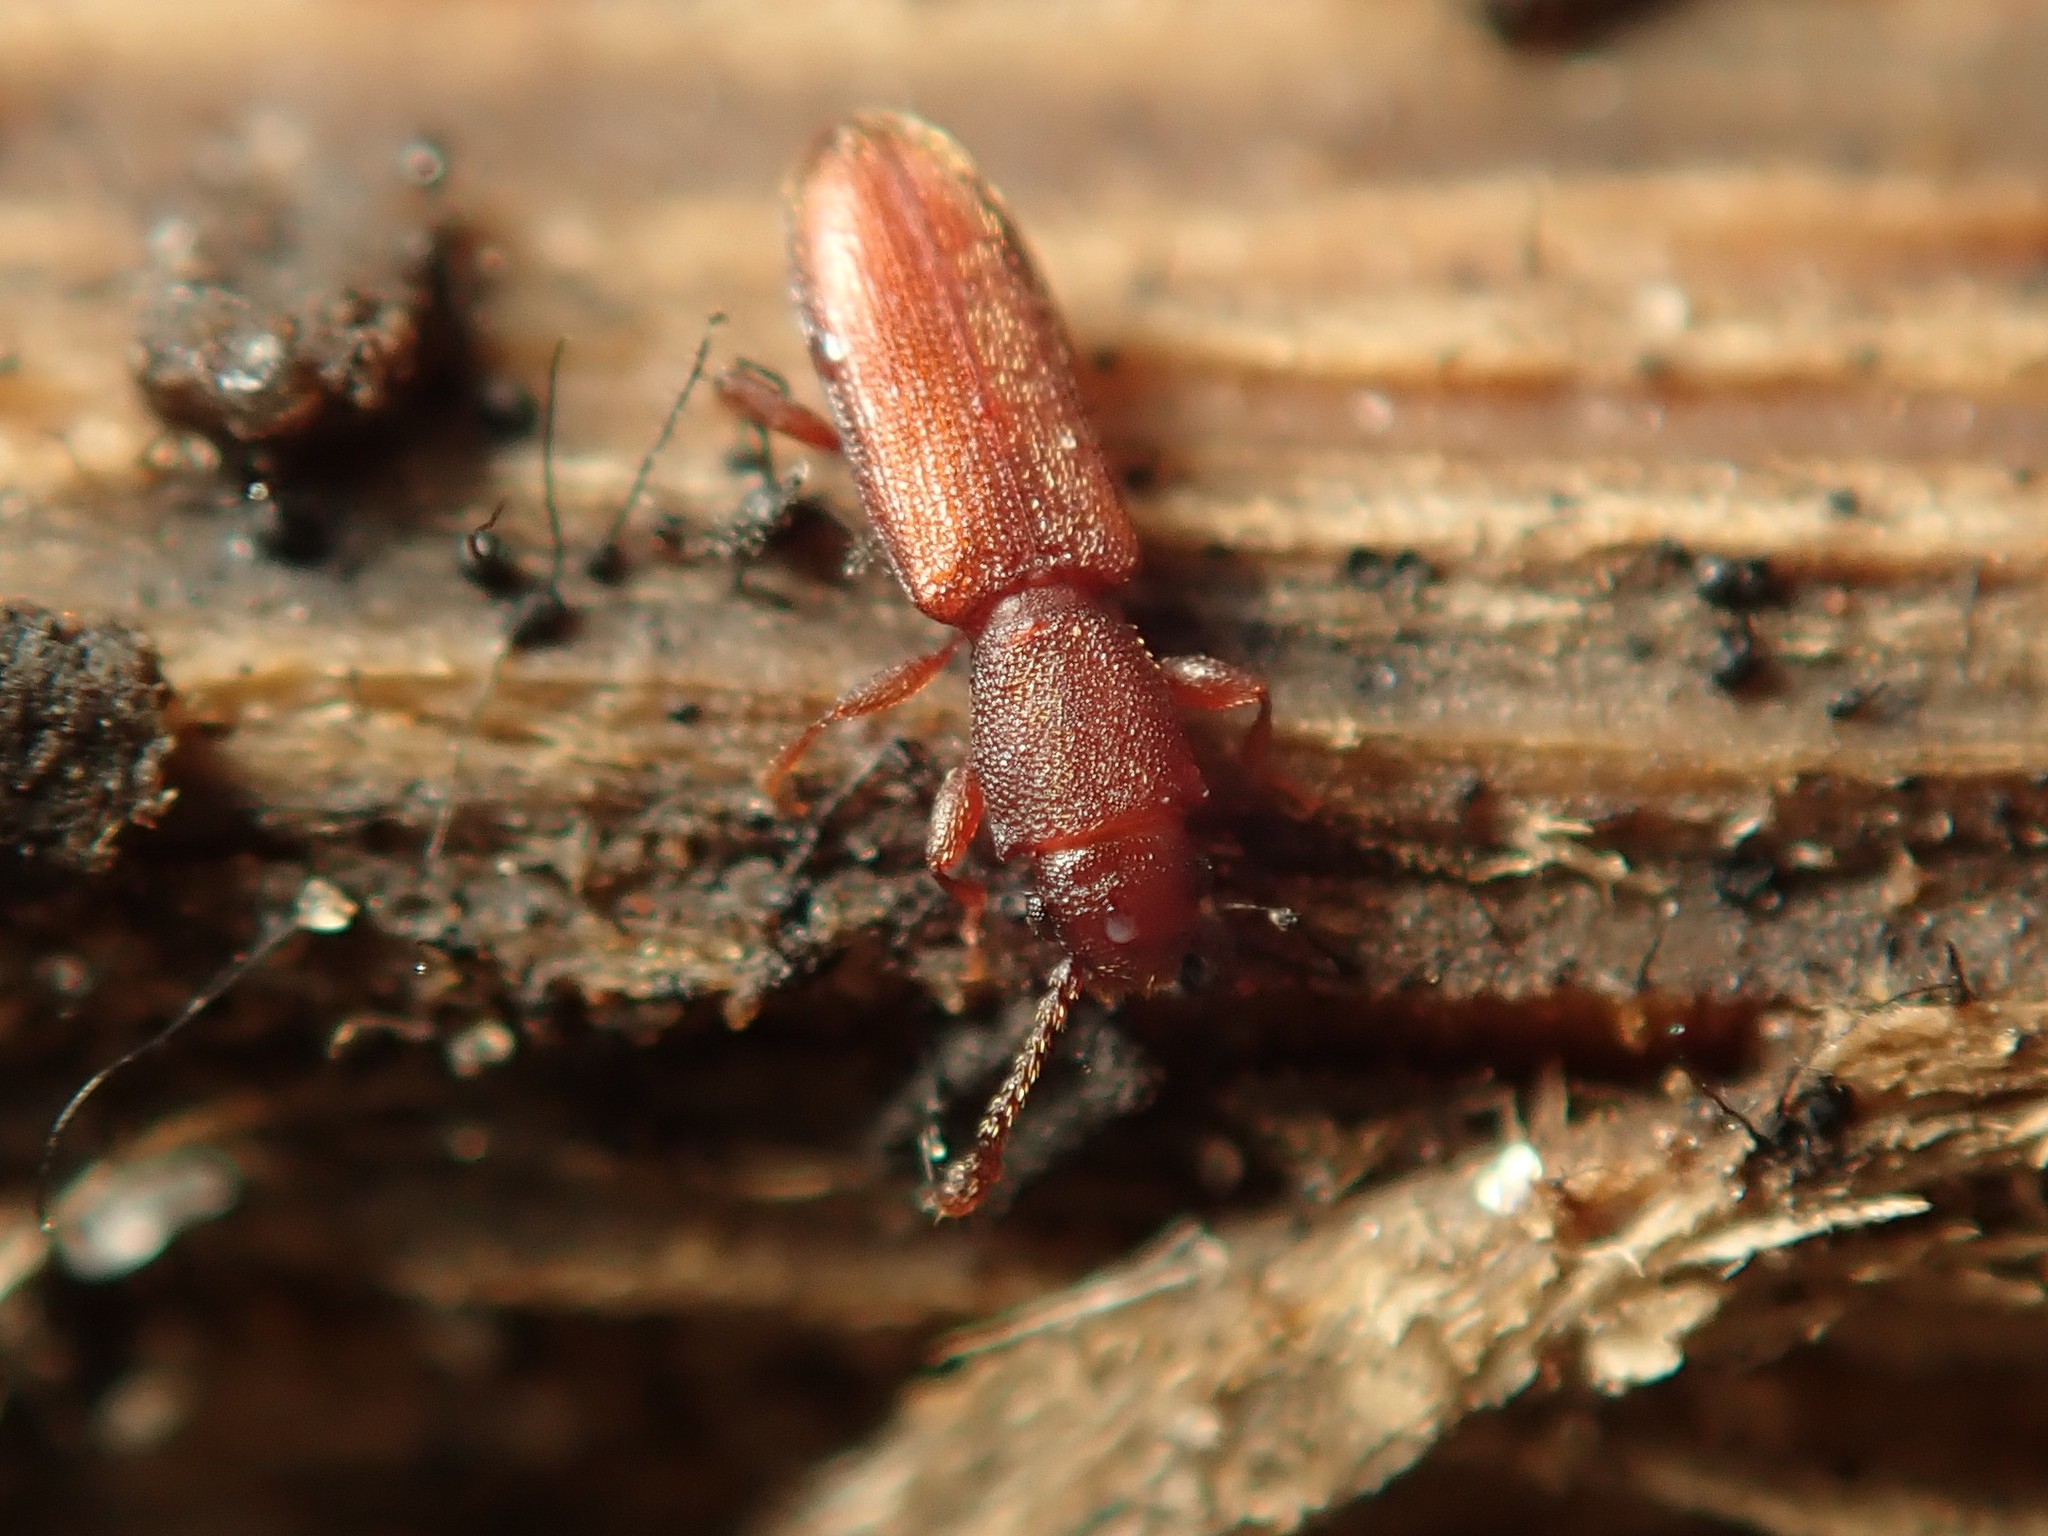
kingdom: Animalia
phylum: Arthropoda
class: Insecta
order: Coleoptera
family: Silvanidae
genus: Silvanus
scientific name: Silvanus unidentatus
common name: One-toothed silvan flat bark beetle
